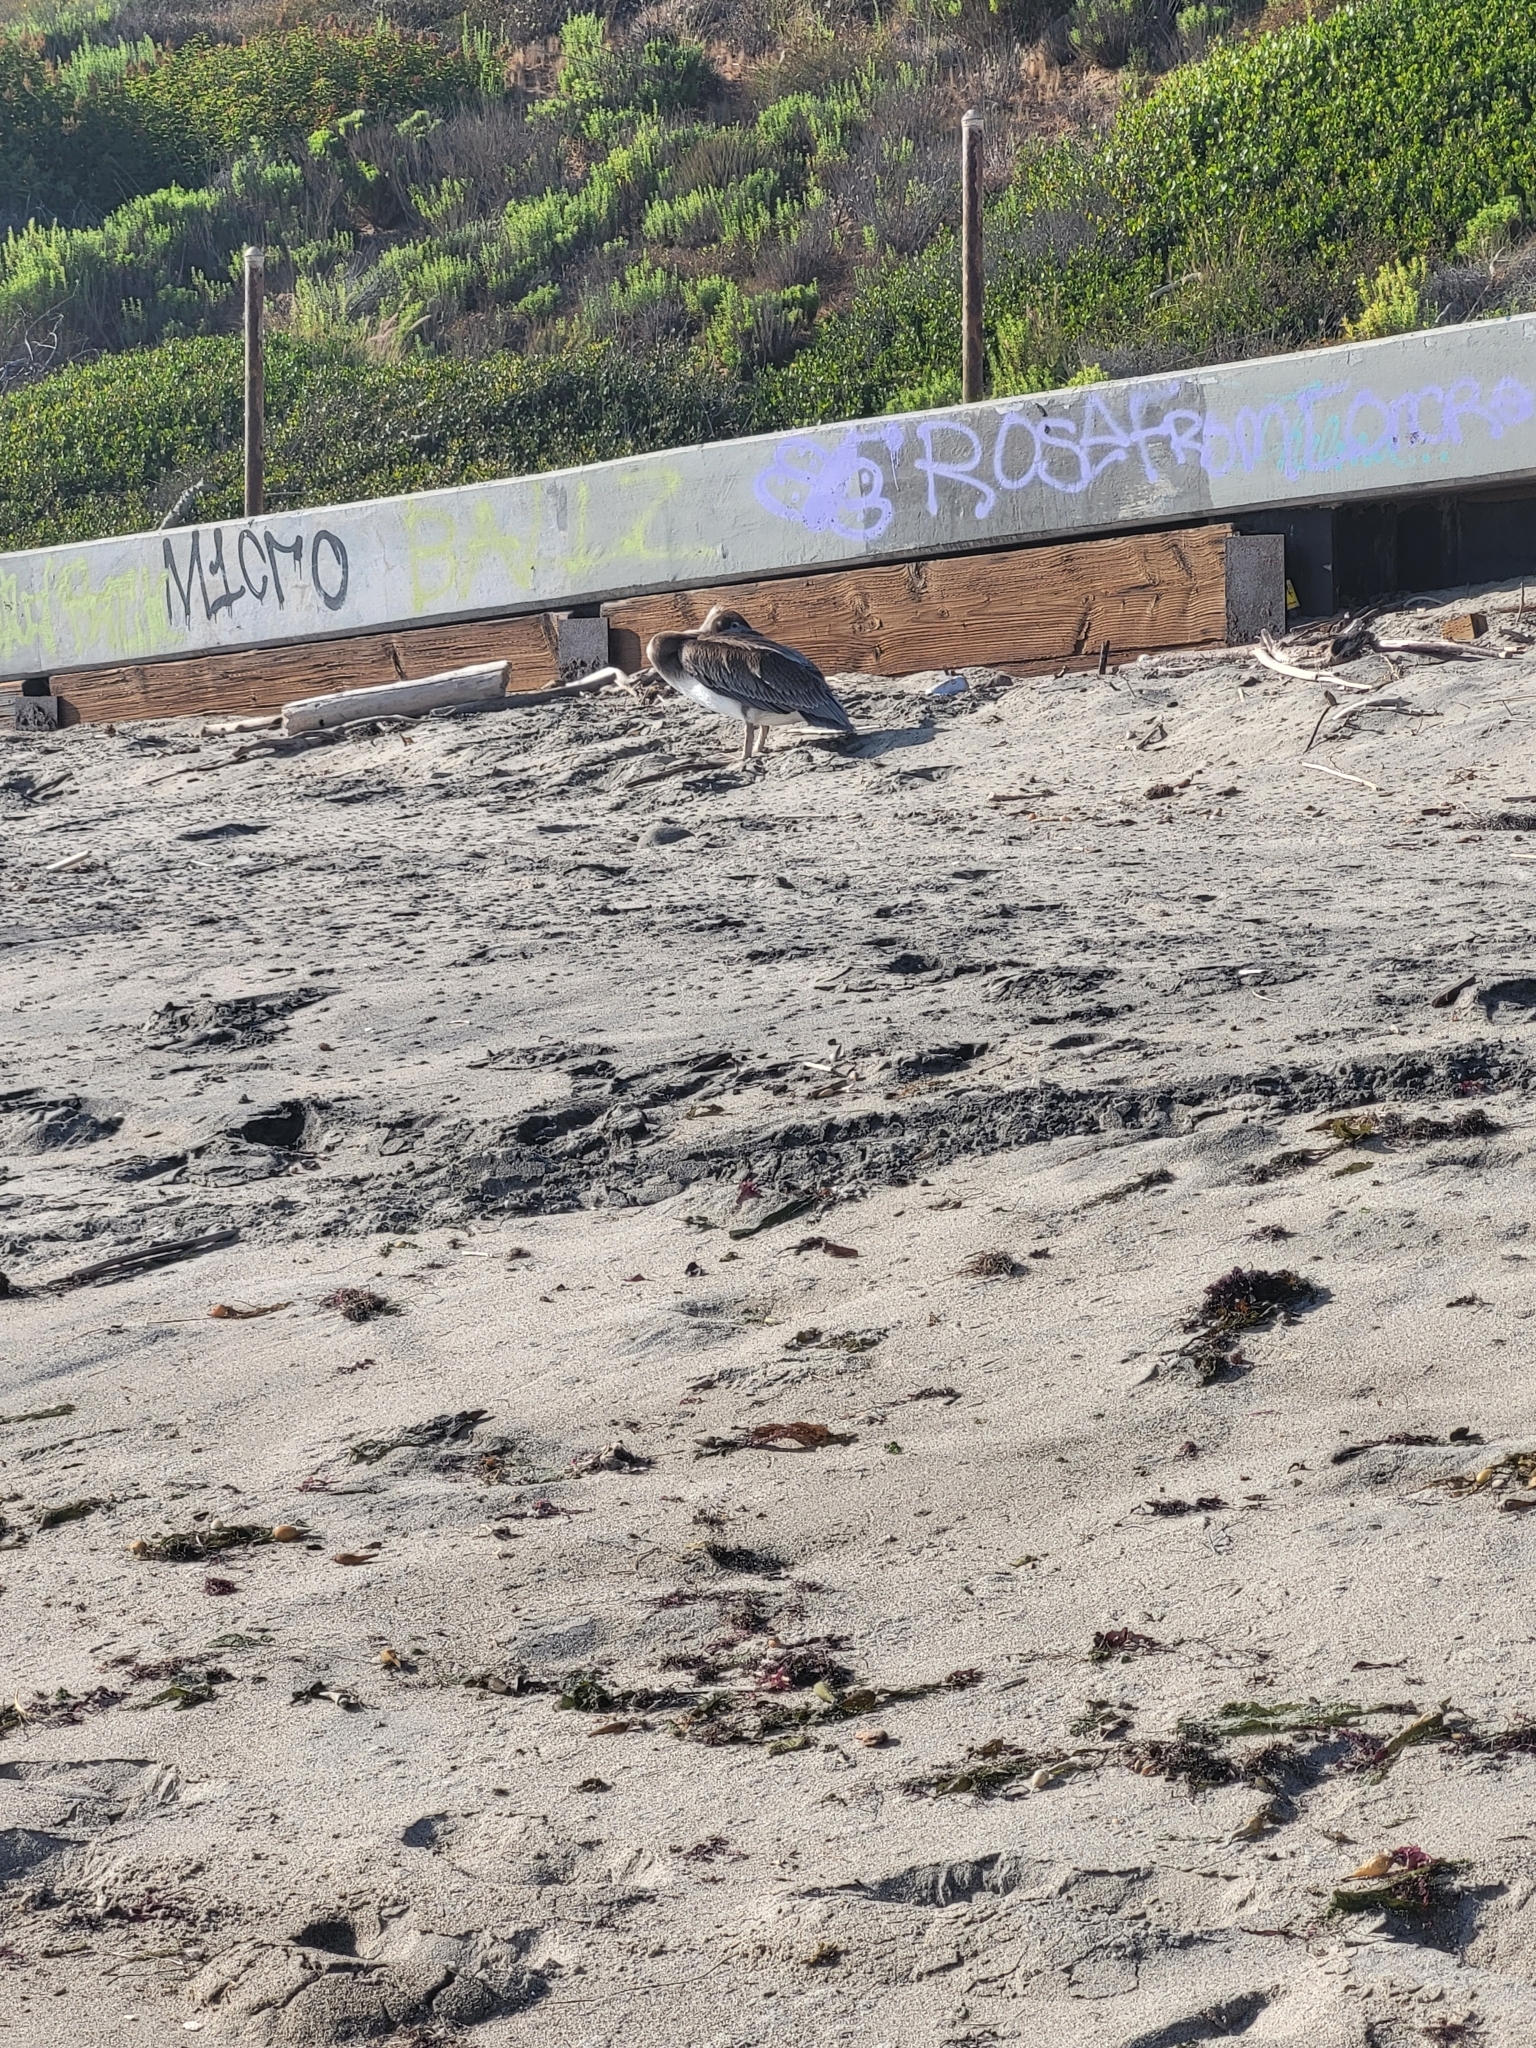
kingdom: Animalia
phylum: Chordata
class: Aves
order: Pelecaniformes
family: Pelecanidae
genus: Pelecanus
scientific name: Pelecanus occidentalis
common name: Brown pelican
